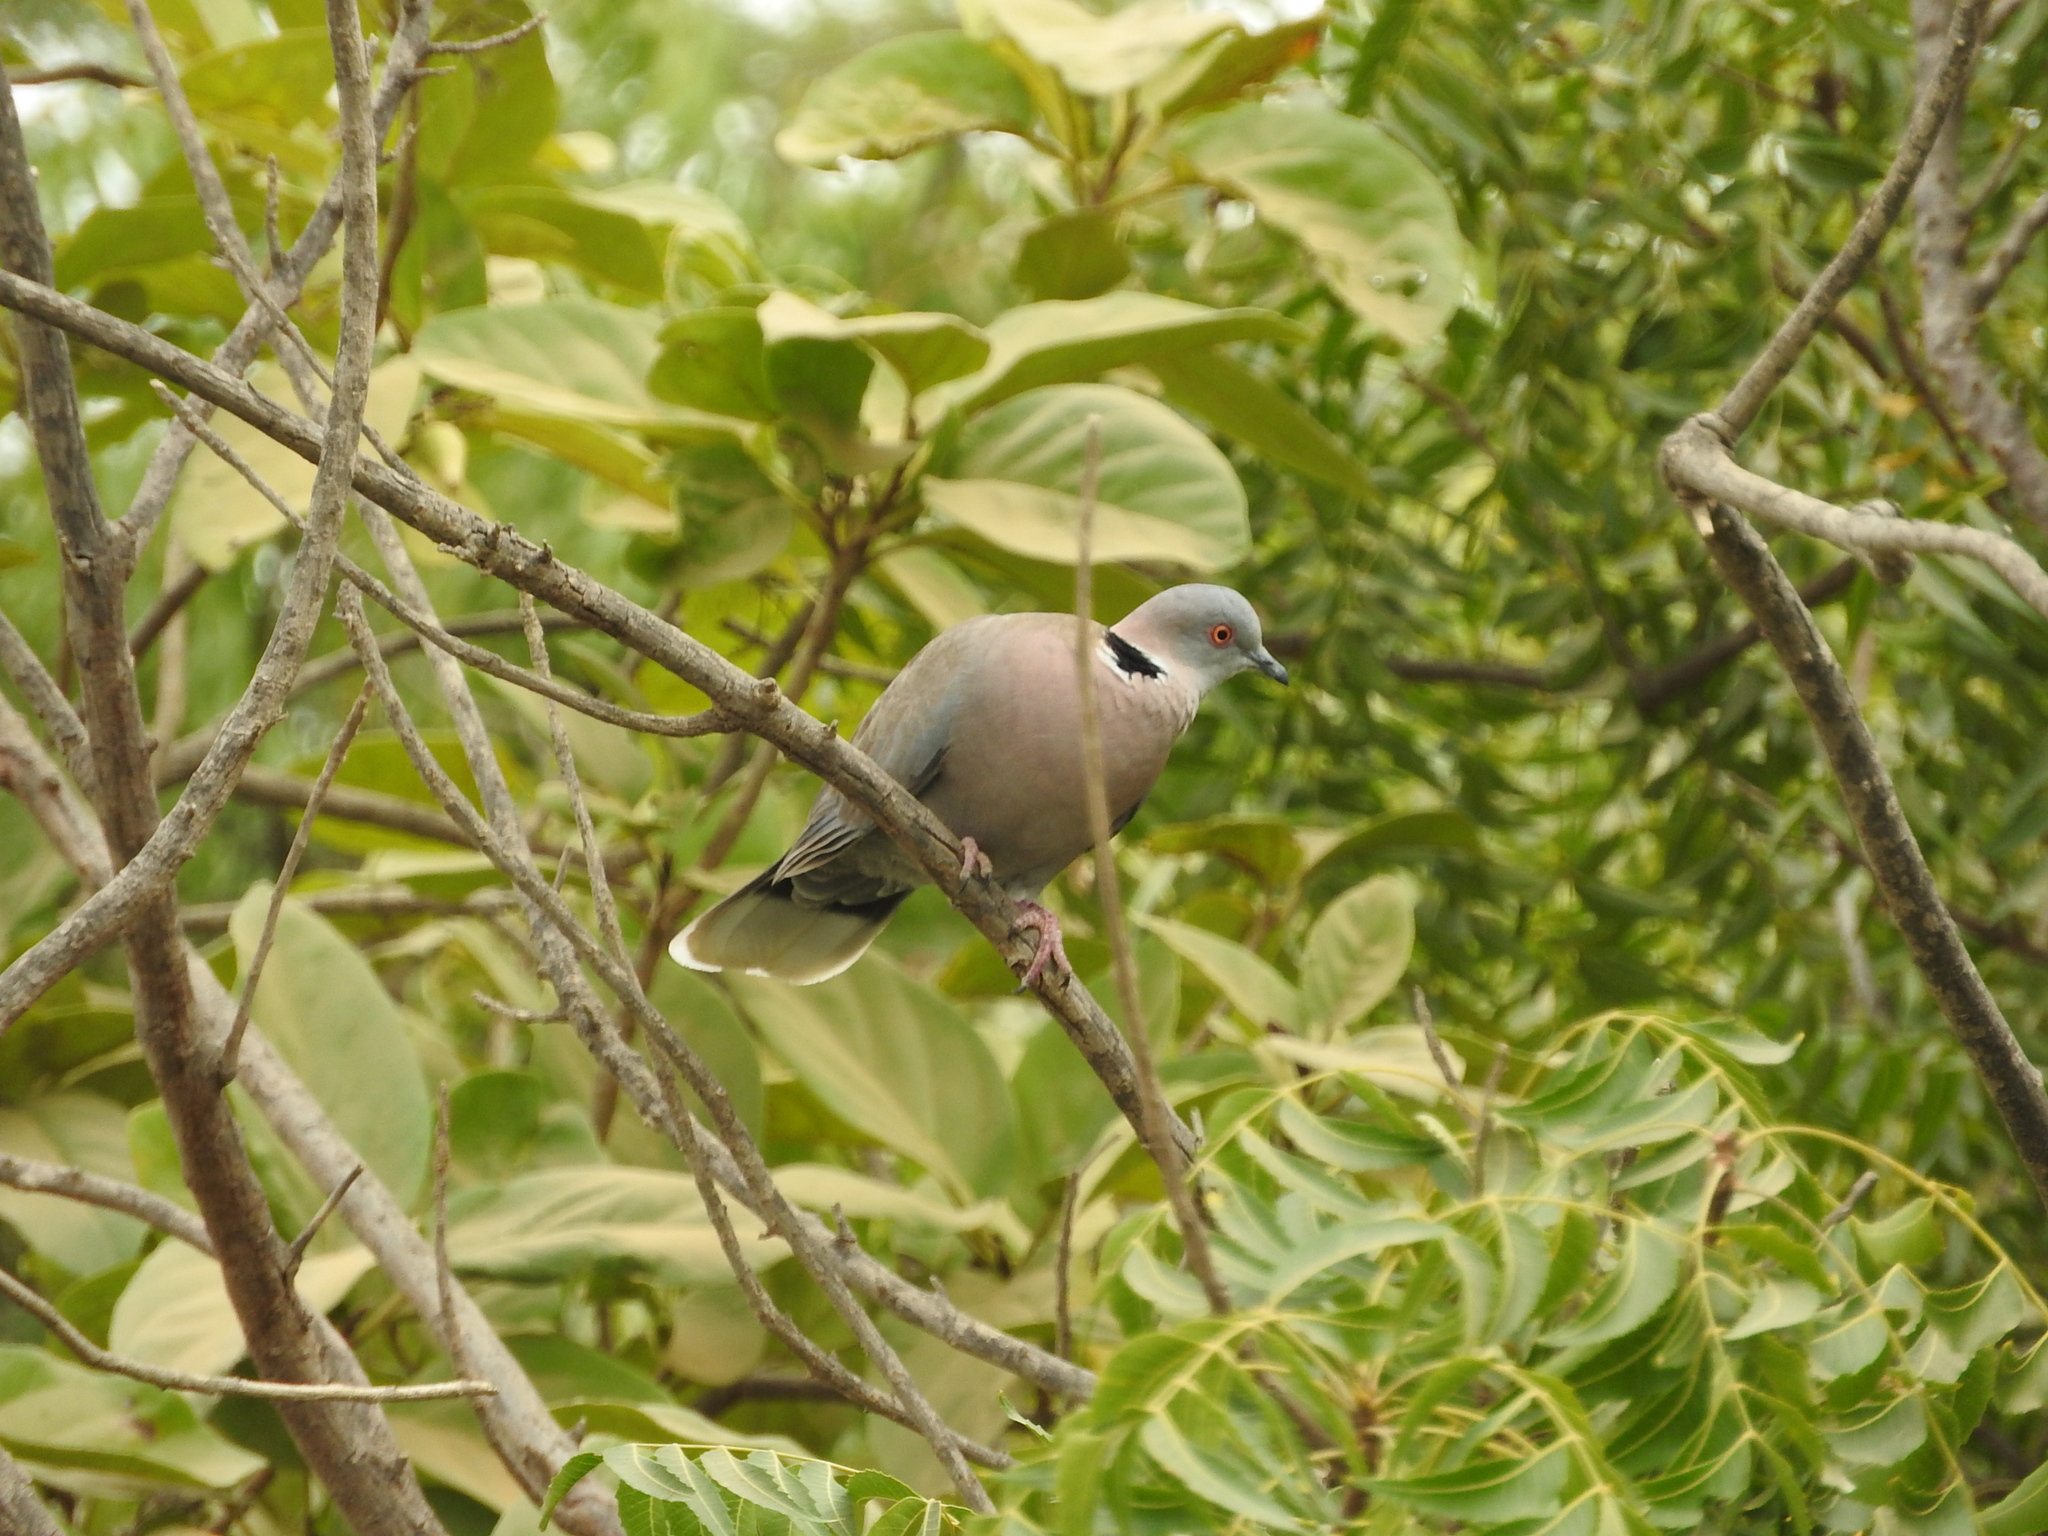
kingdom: Animalia
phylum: Chordata
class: Aves
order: Columbiformes
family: Columbidae
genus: Streptopelia
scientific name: Streptopelia decipiens
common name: Mourning collared dove
